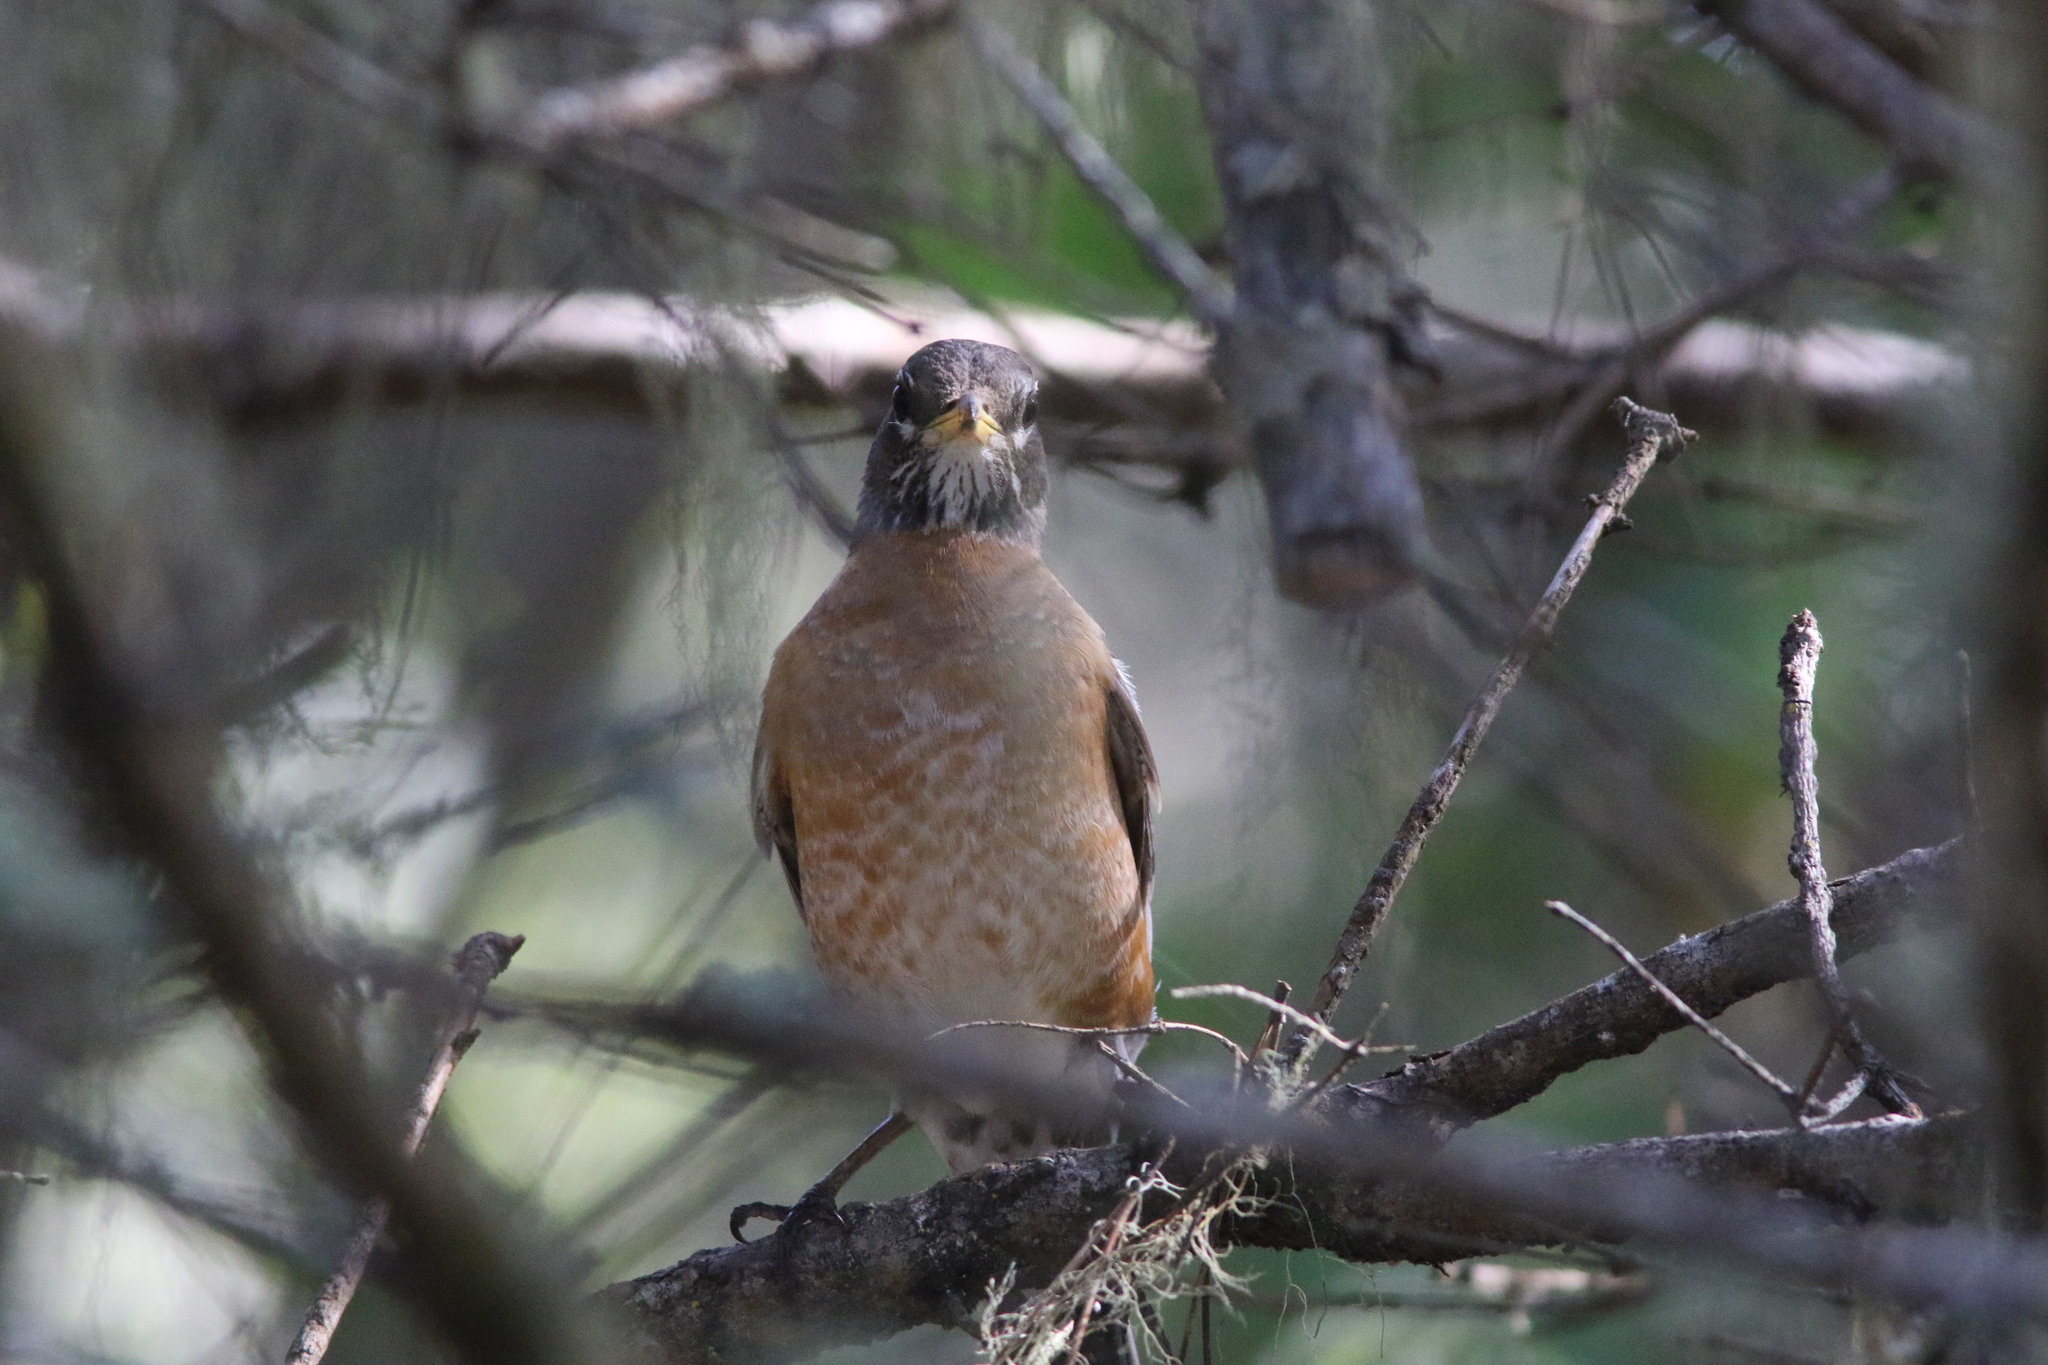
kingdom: Animalia
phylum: Chordata
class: Aves
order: Passeriformes
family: Turdidae
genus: Turdus
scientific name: Turdus migratorius
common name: American robin
